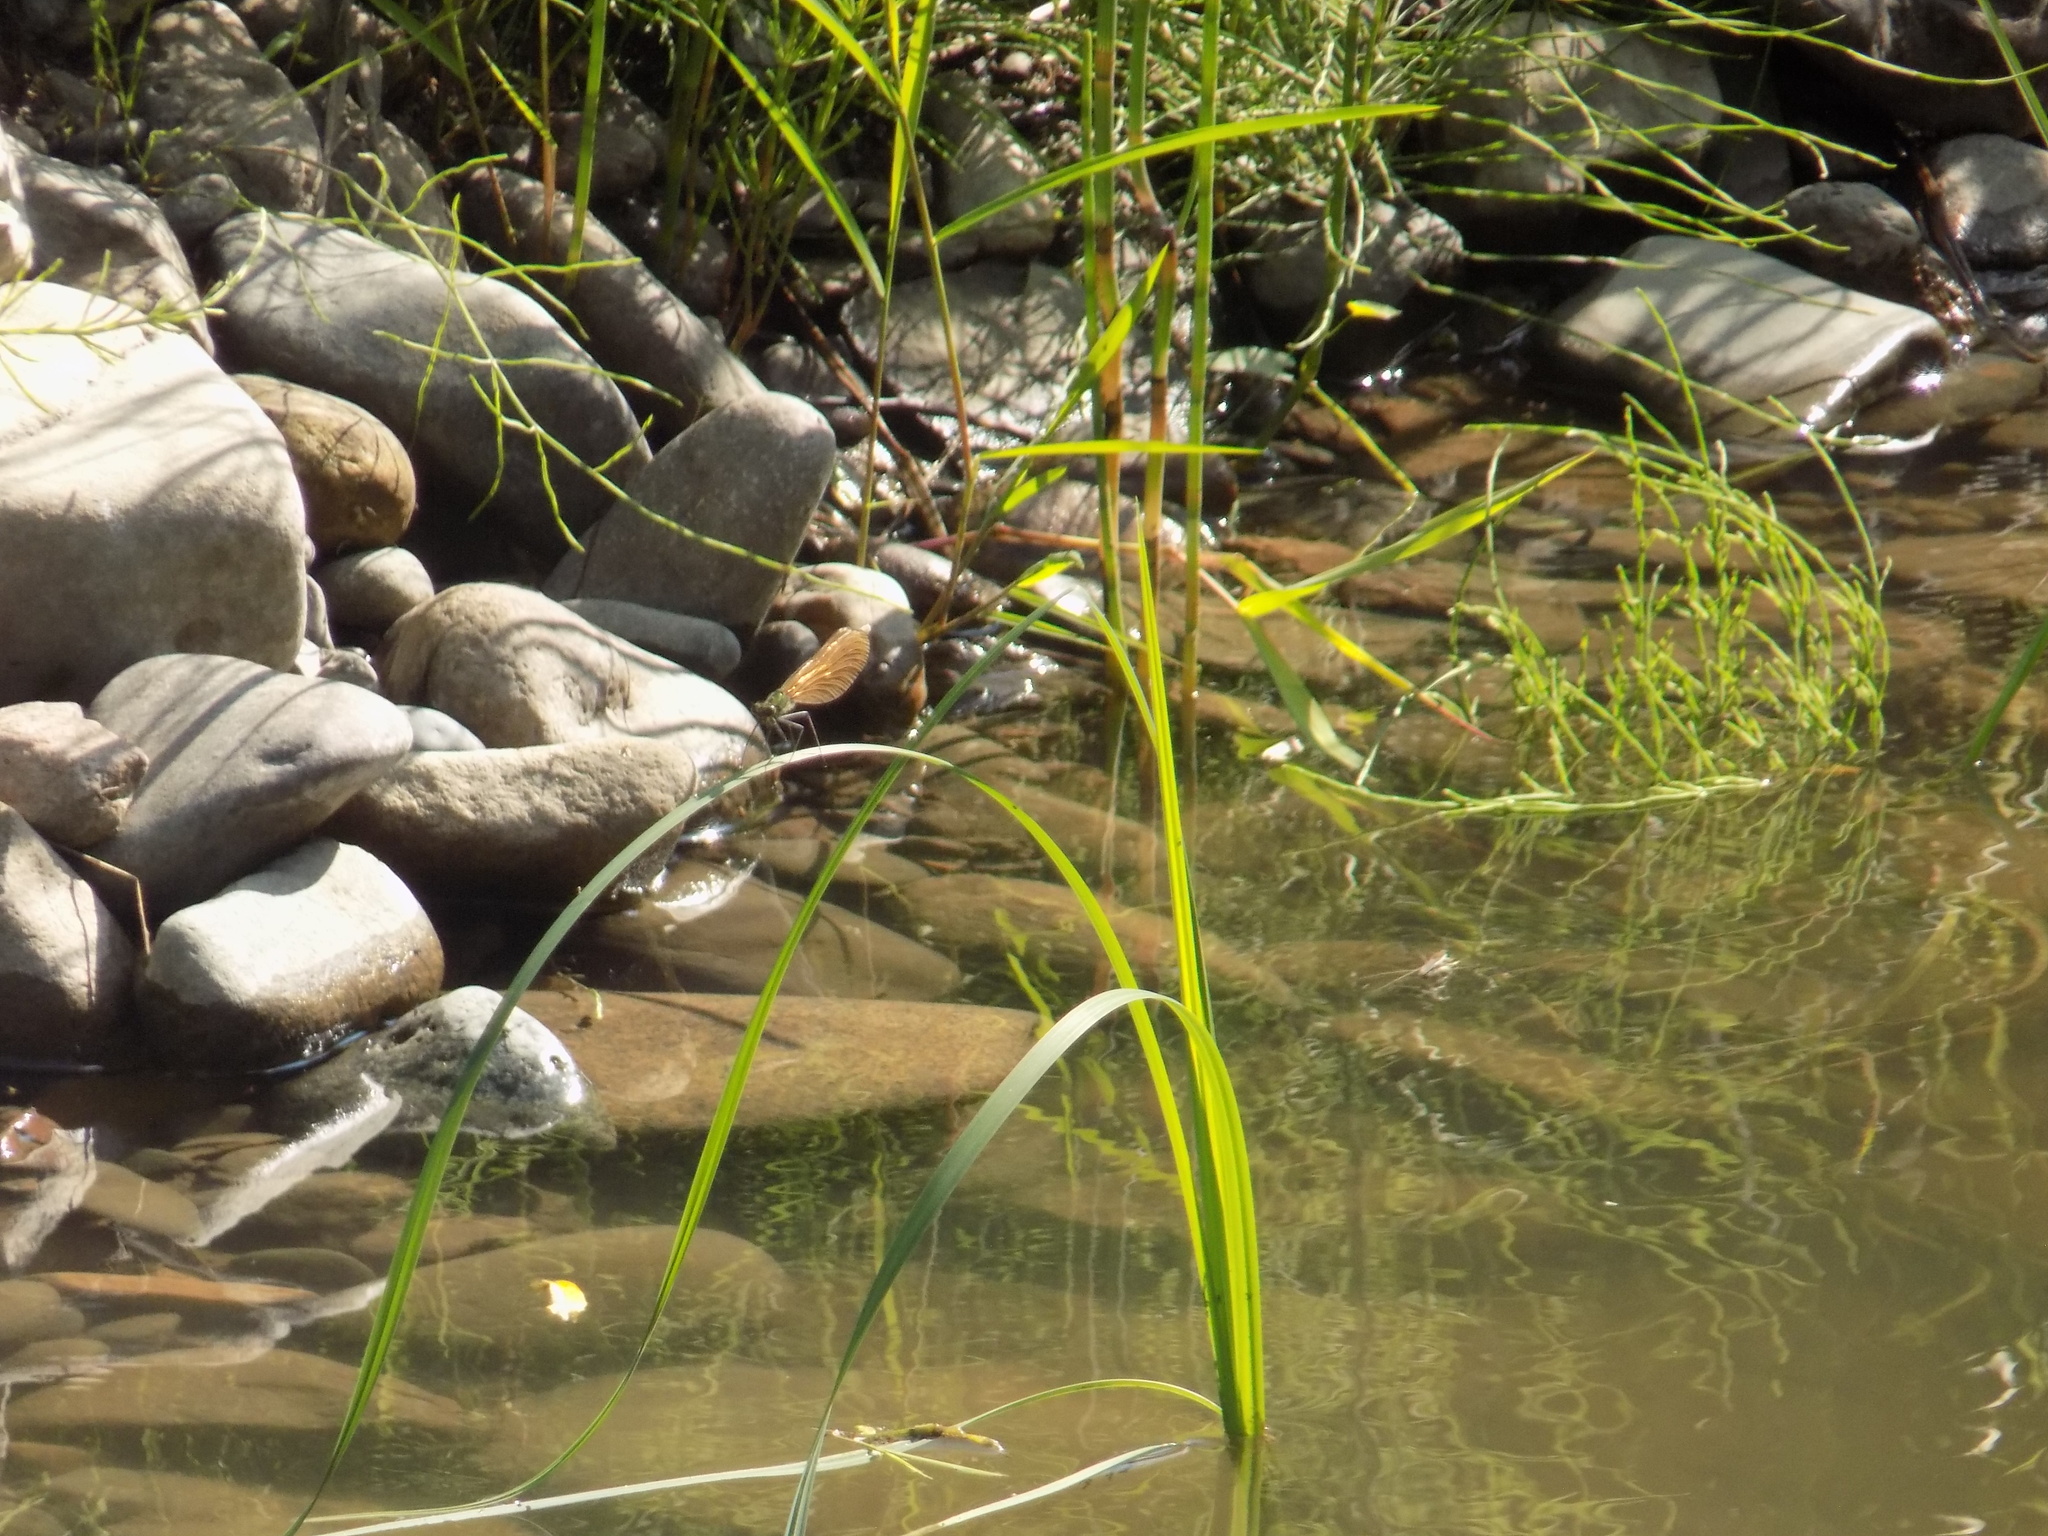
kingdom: Animalia
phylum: Arthropoda
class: Insecta
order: Odonata
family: Calopterygidae
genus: Calopteryx
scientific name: Calopteryx japonica
